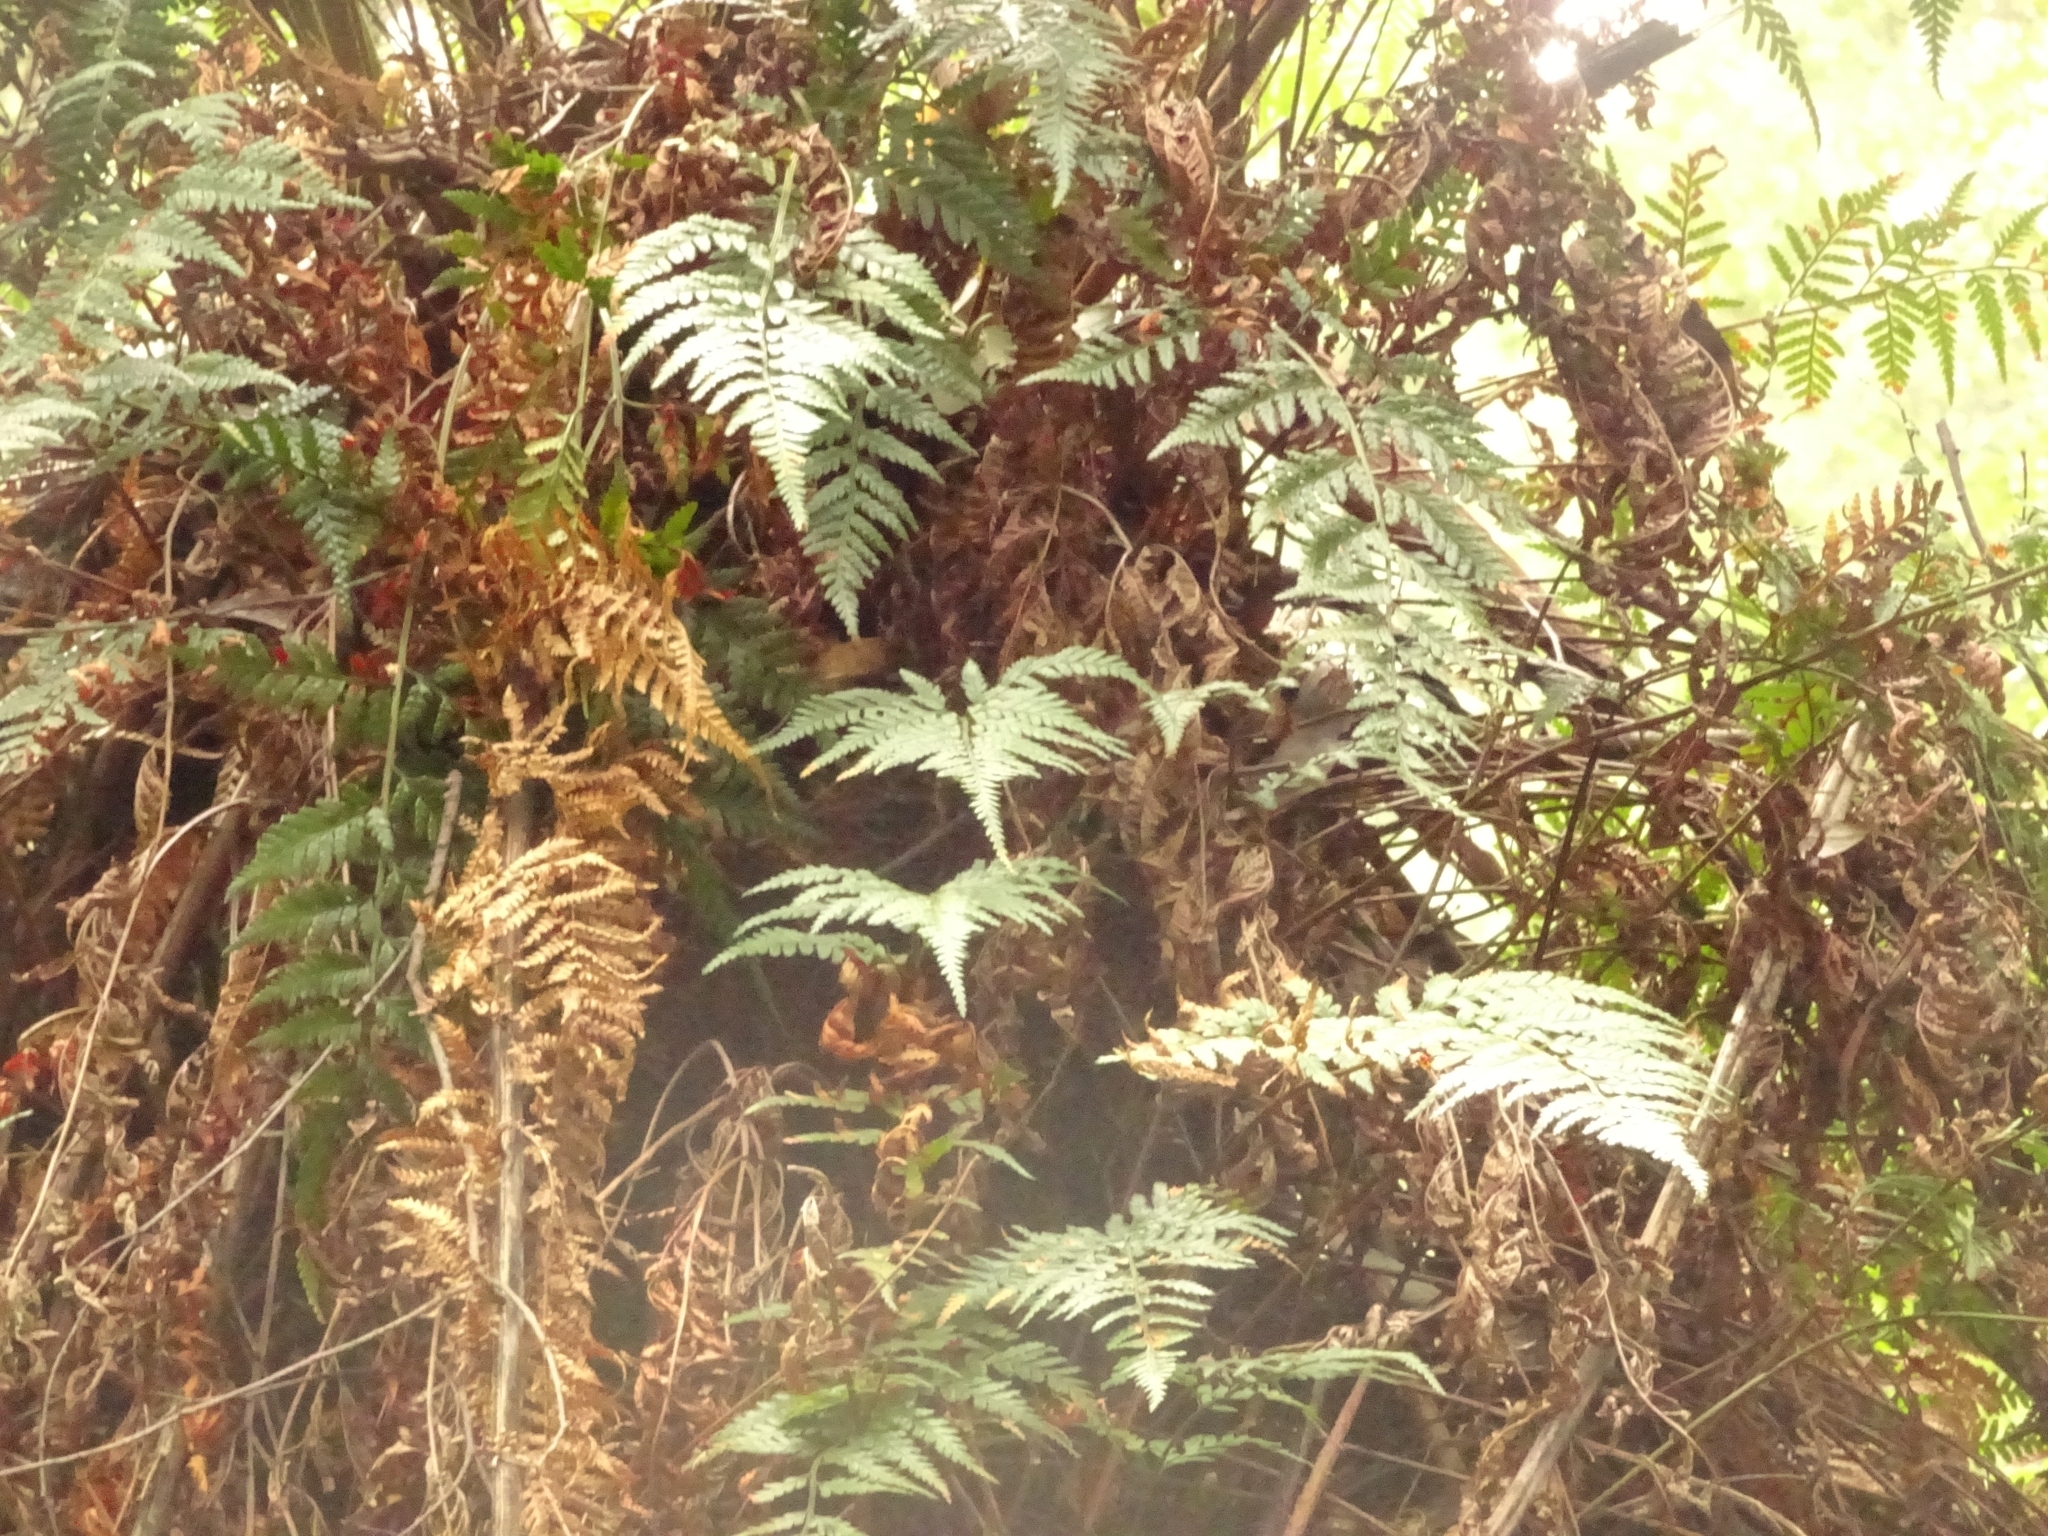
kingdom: Plantae
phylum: Tracheophyta
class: Polypodiopsida
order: Polypodiales
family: Dryopteridaceae
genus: Rumohra
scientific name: Rumohra adiantiformis
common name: Leather fern
